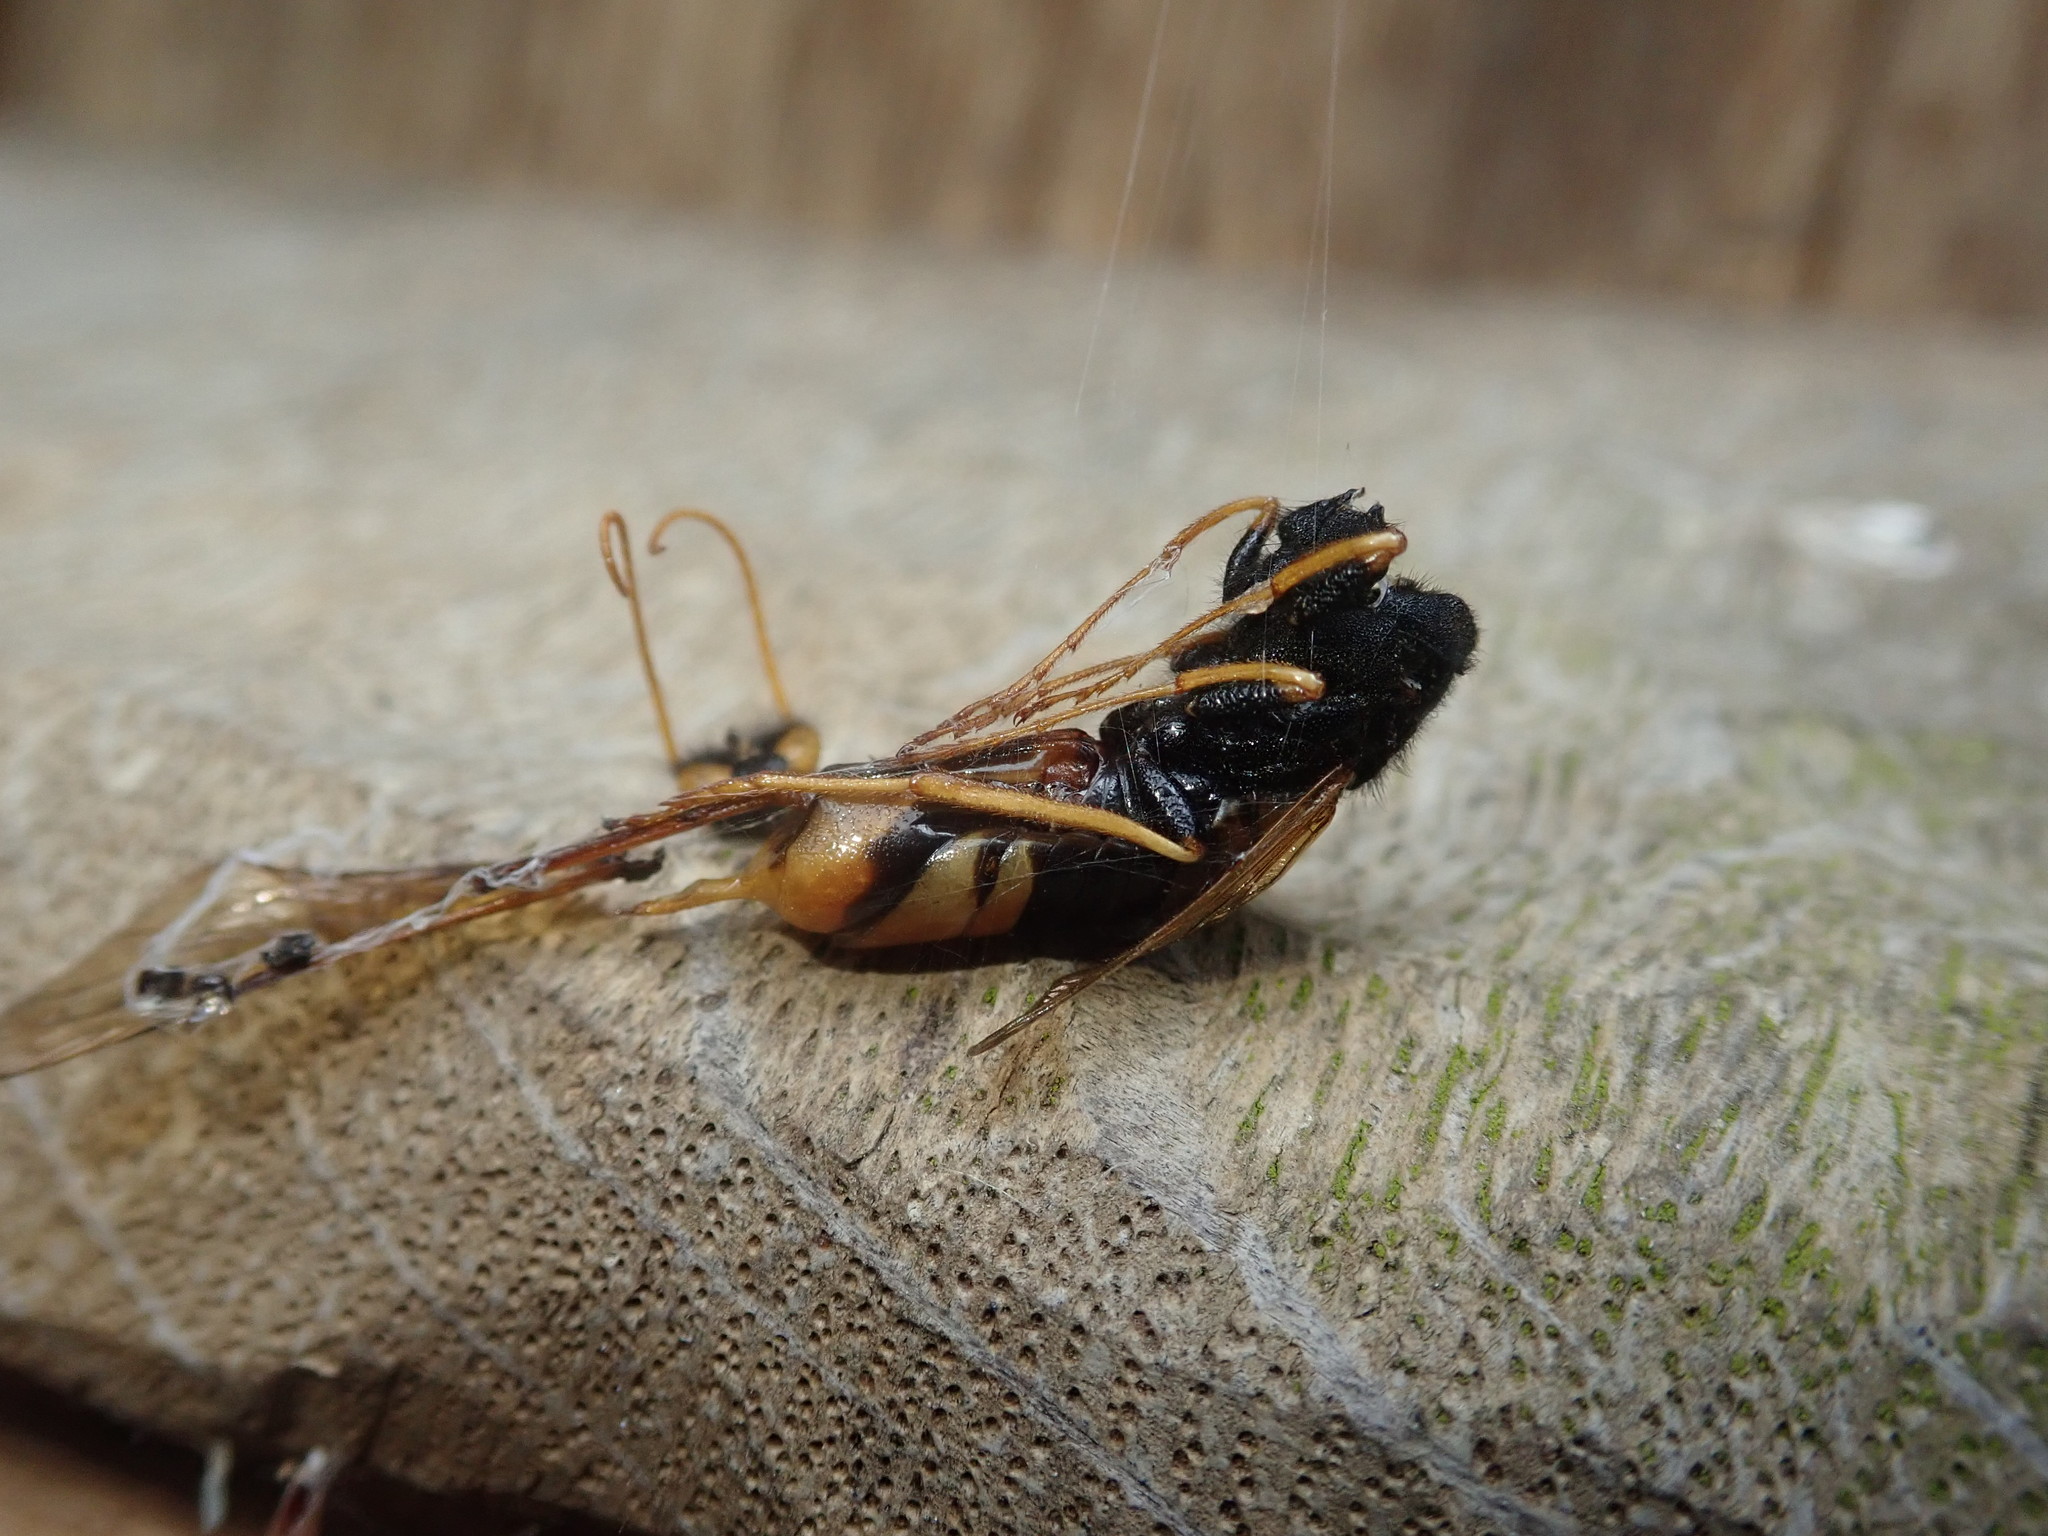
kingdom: Animalia
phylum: Arthropoda
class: Insecta
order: Hymenoptera
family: Siricidae
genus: Urocerus
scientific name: Urocerus gigas
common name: Giant woodwasp
